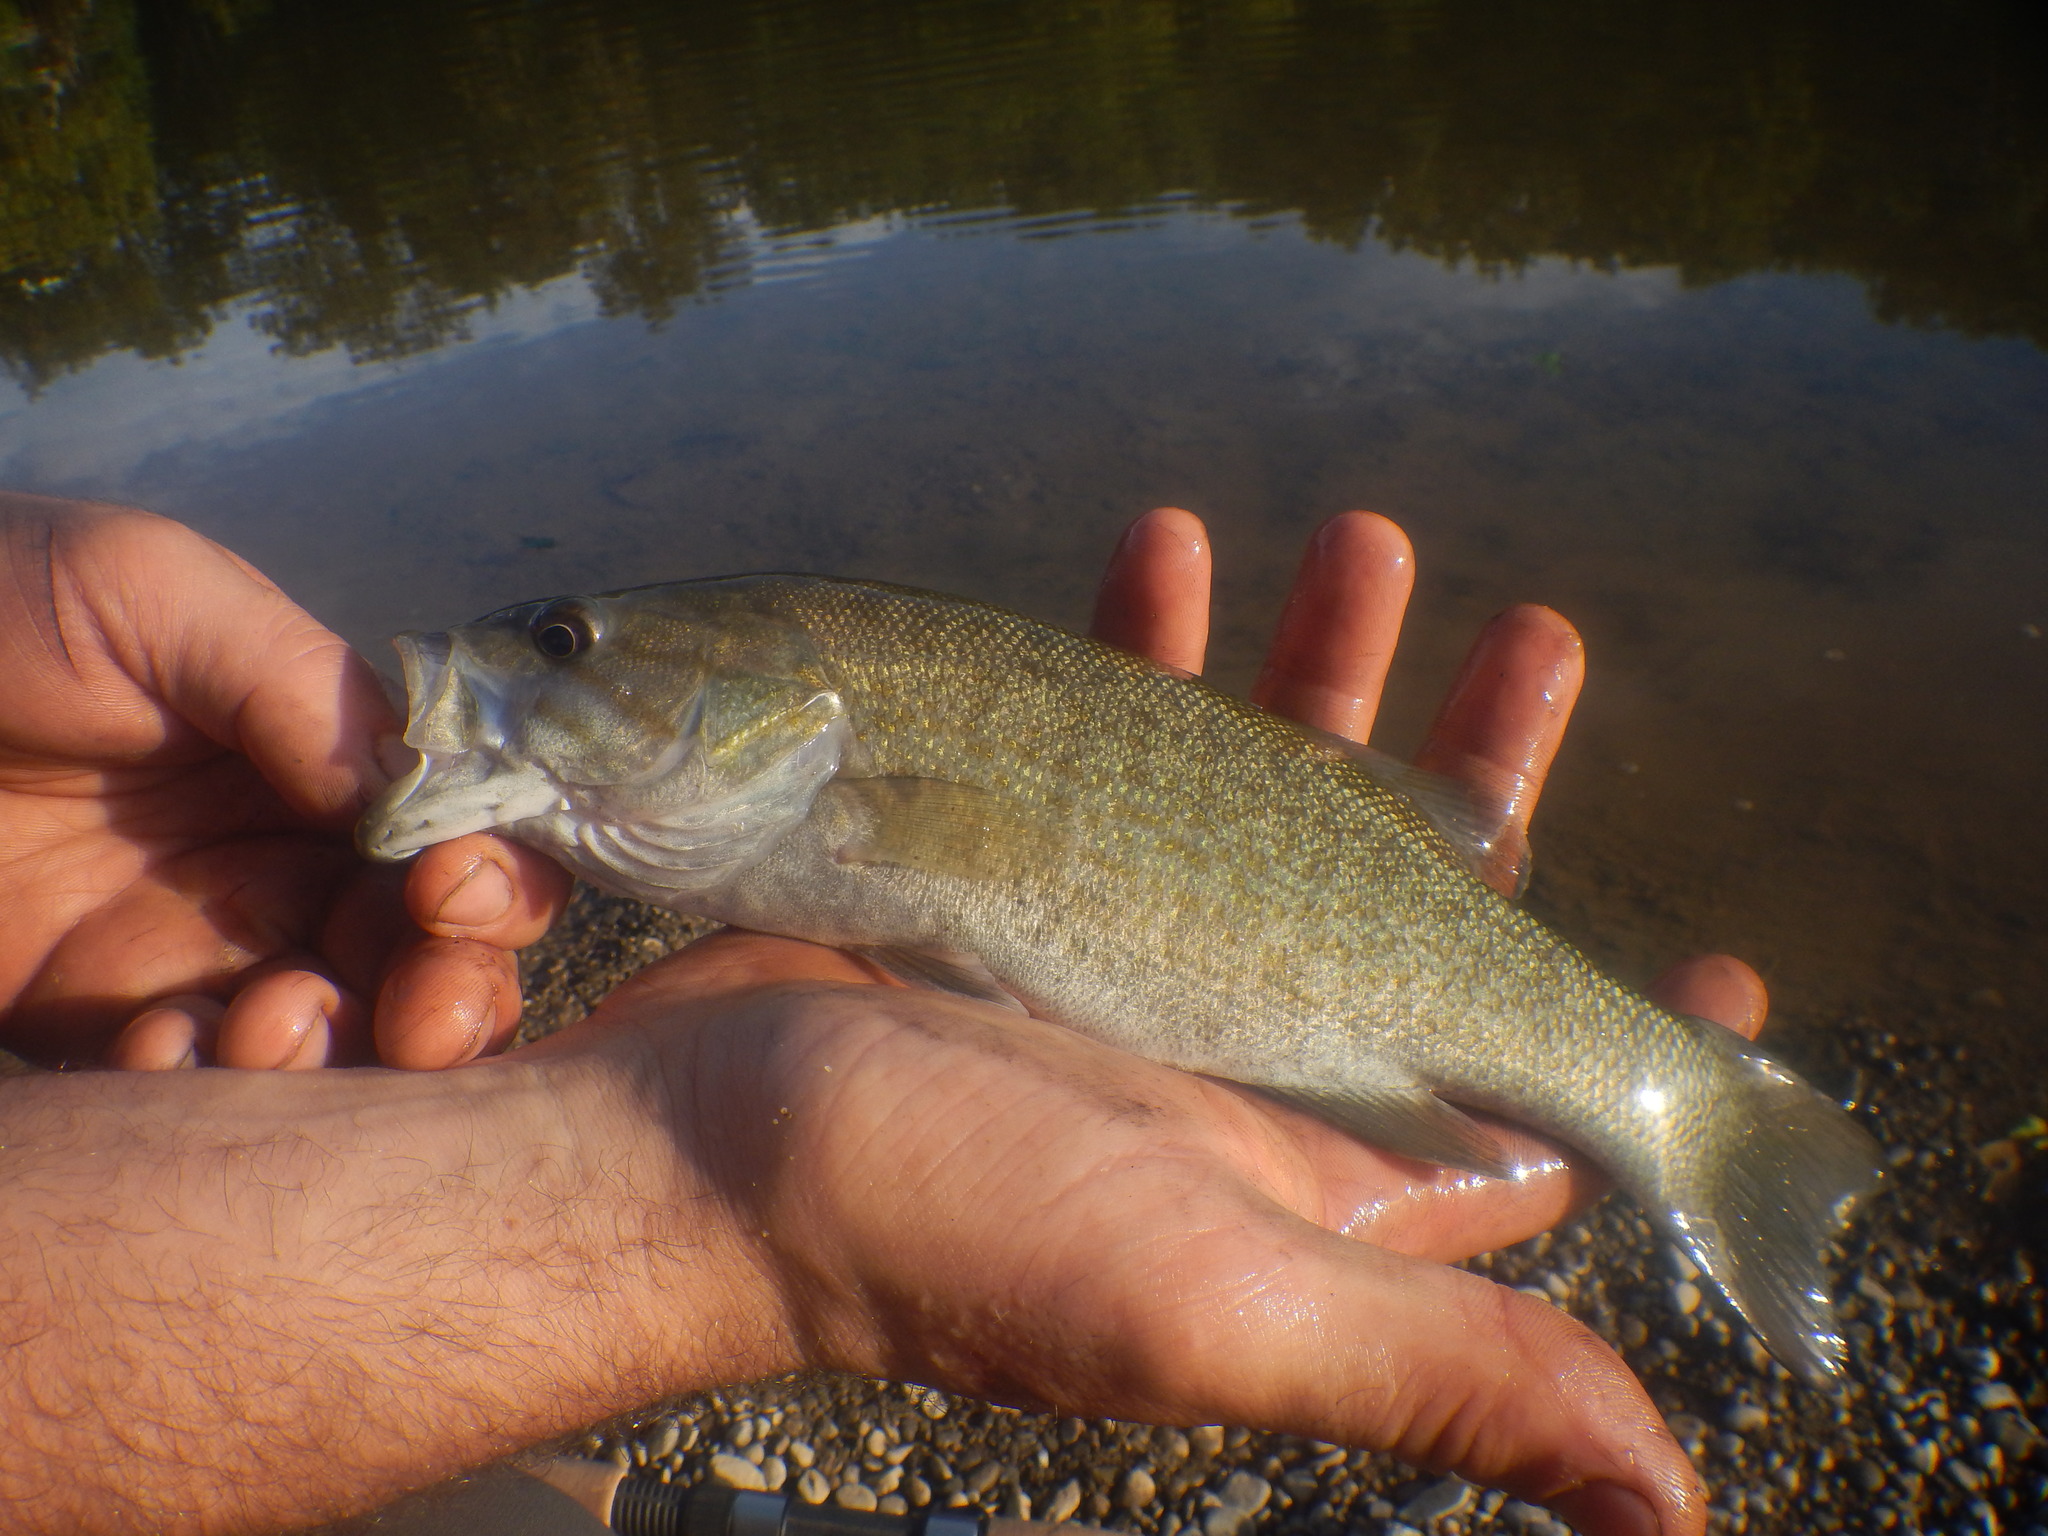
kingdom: Animalia
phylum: Chordata
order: Perciformes
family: Centrarchidae
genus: Micropterus
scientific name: Micropterus dolomieu
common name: Smallmouth bass
